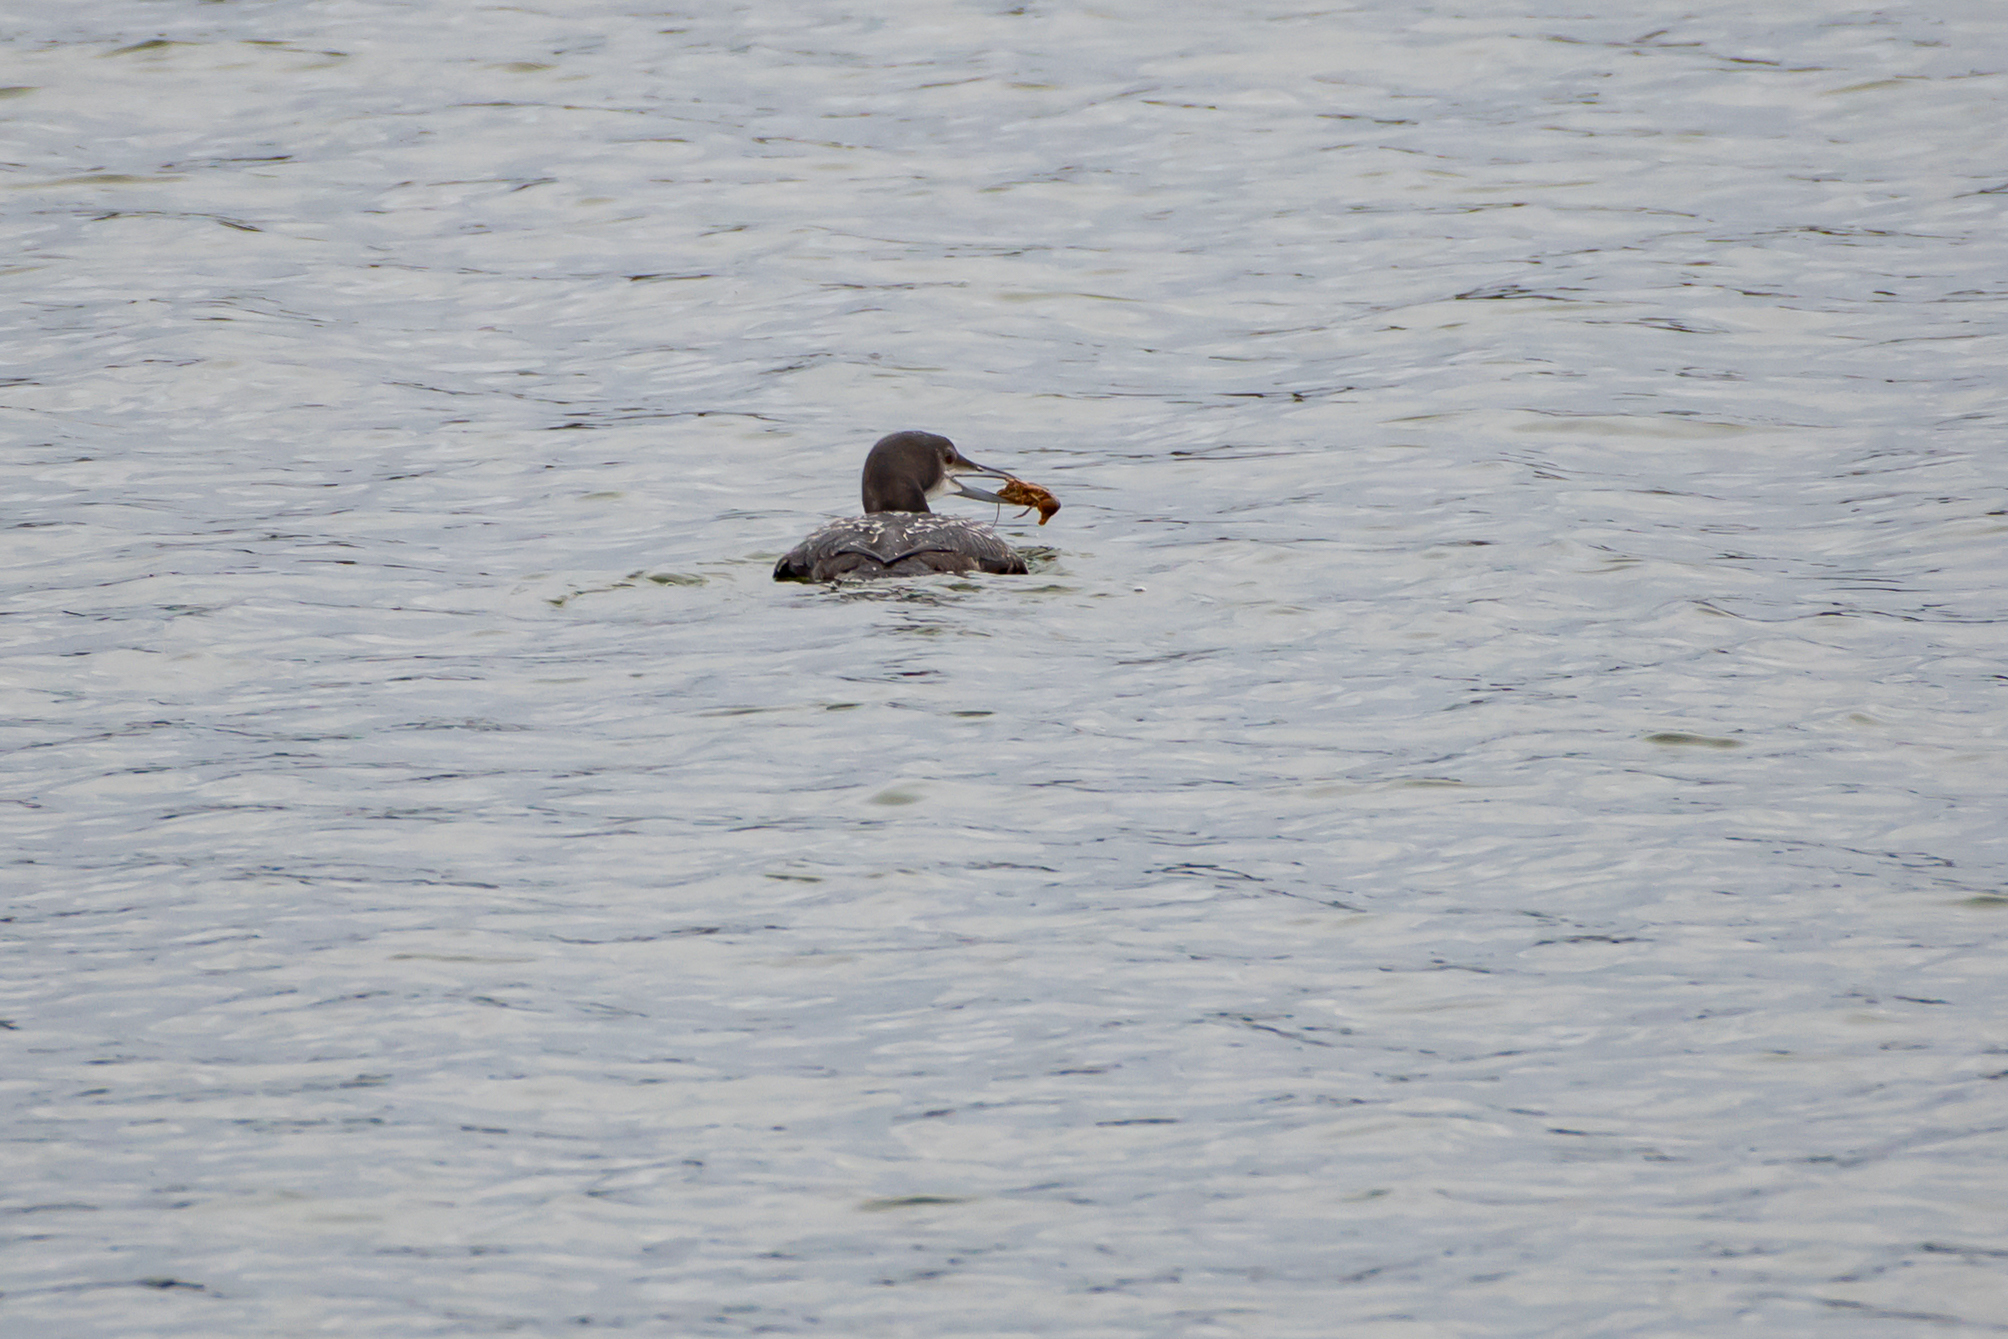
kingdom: Animalia
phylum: Chordata
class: Aves
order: Gaviiformes
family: Gaviidae
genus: Gavia
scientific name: Gavia immer
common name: Common loon
